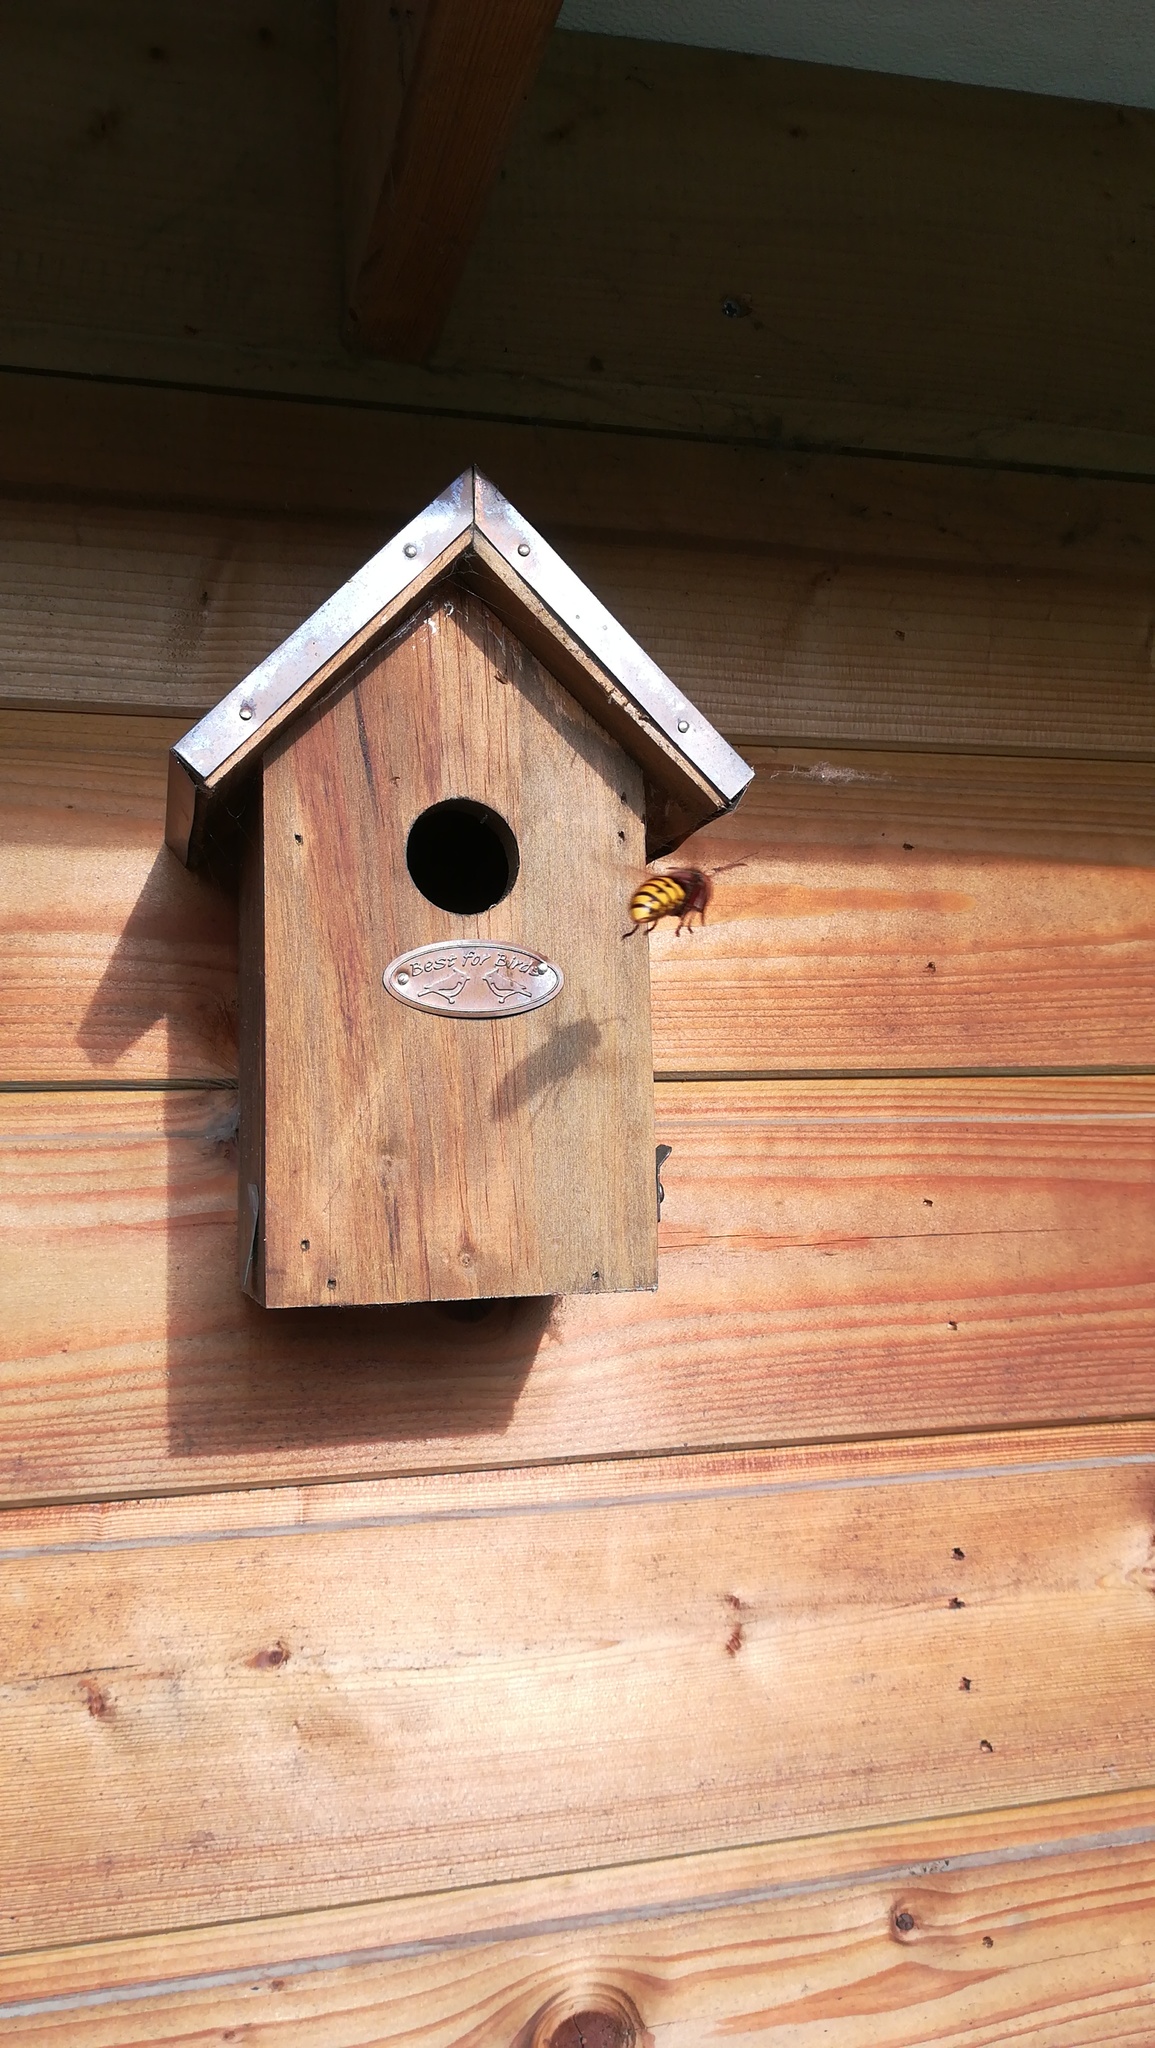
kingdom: Animalia
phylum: Arthropoda
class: Insecta
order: Hymenoptera
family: Vespidae
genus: Vespa
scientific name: Vespa crabro
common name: Hornet
